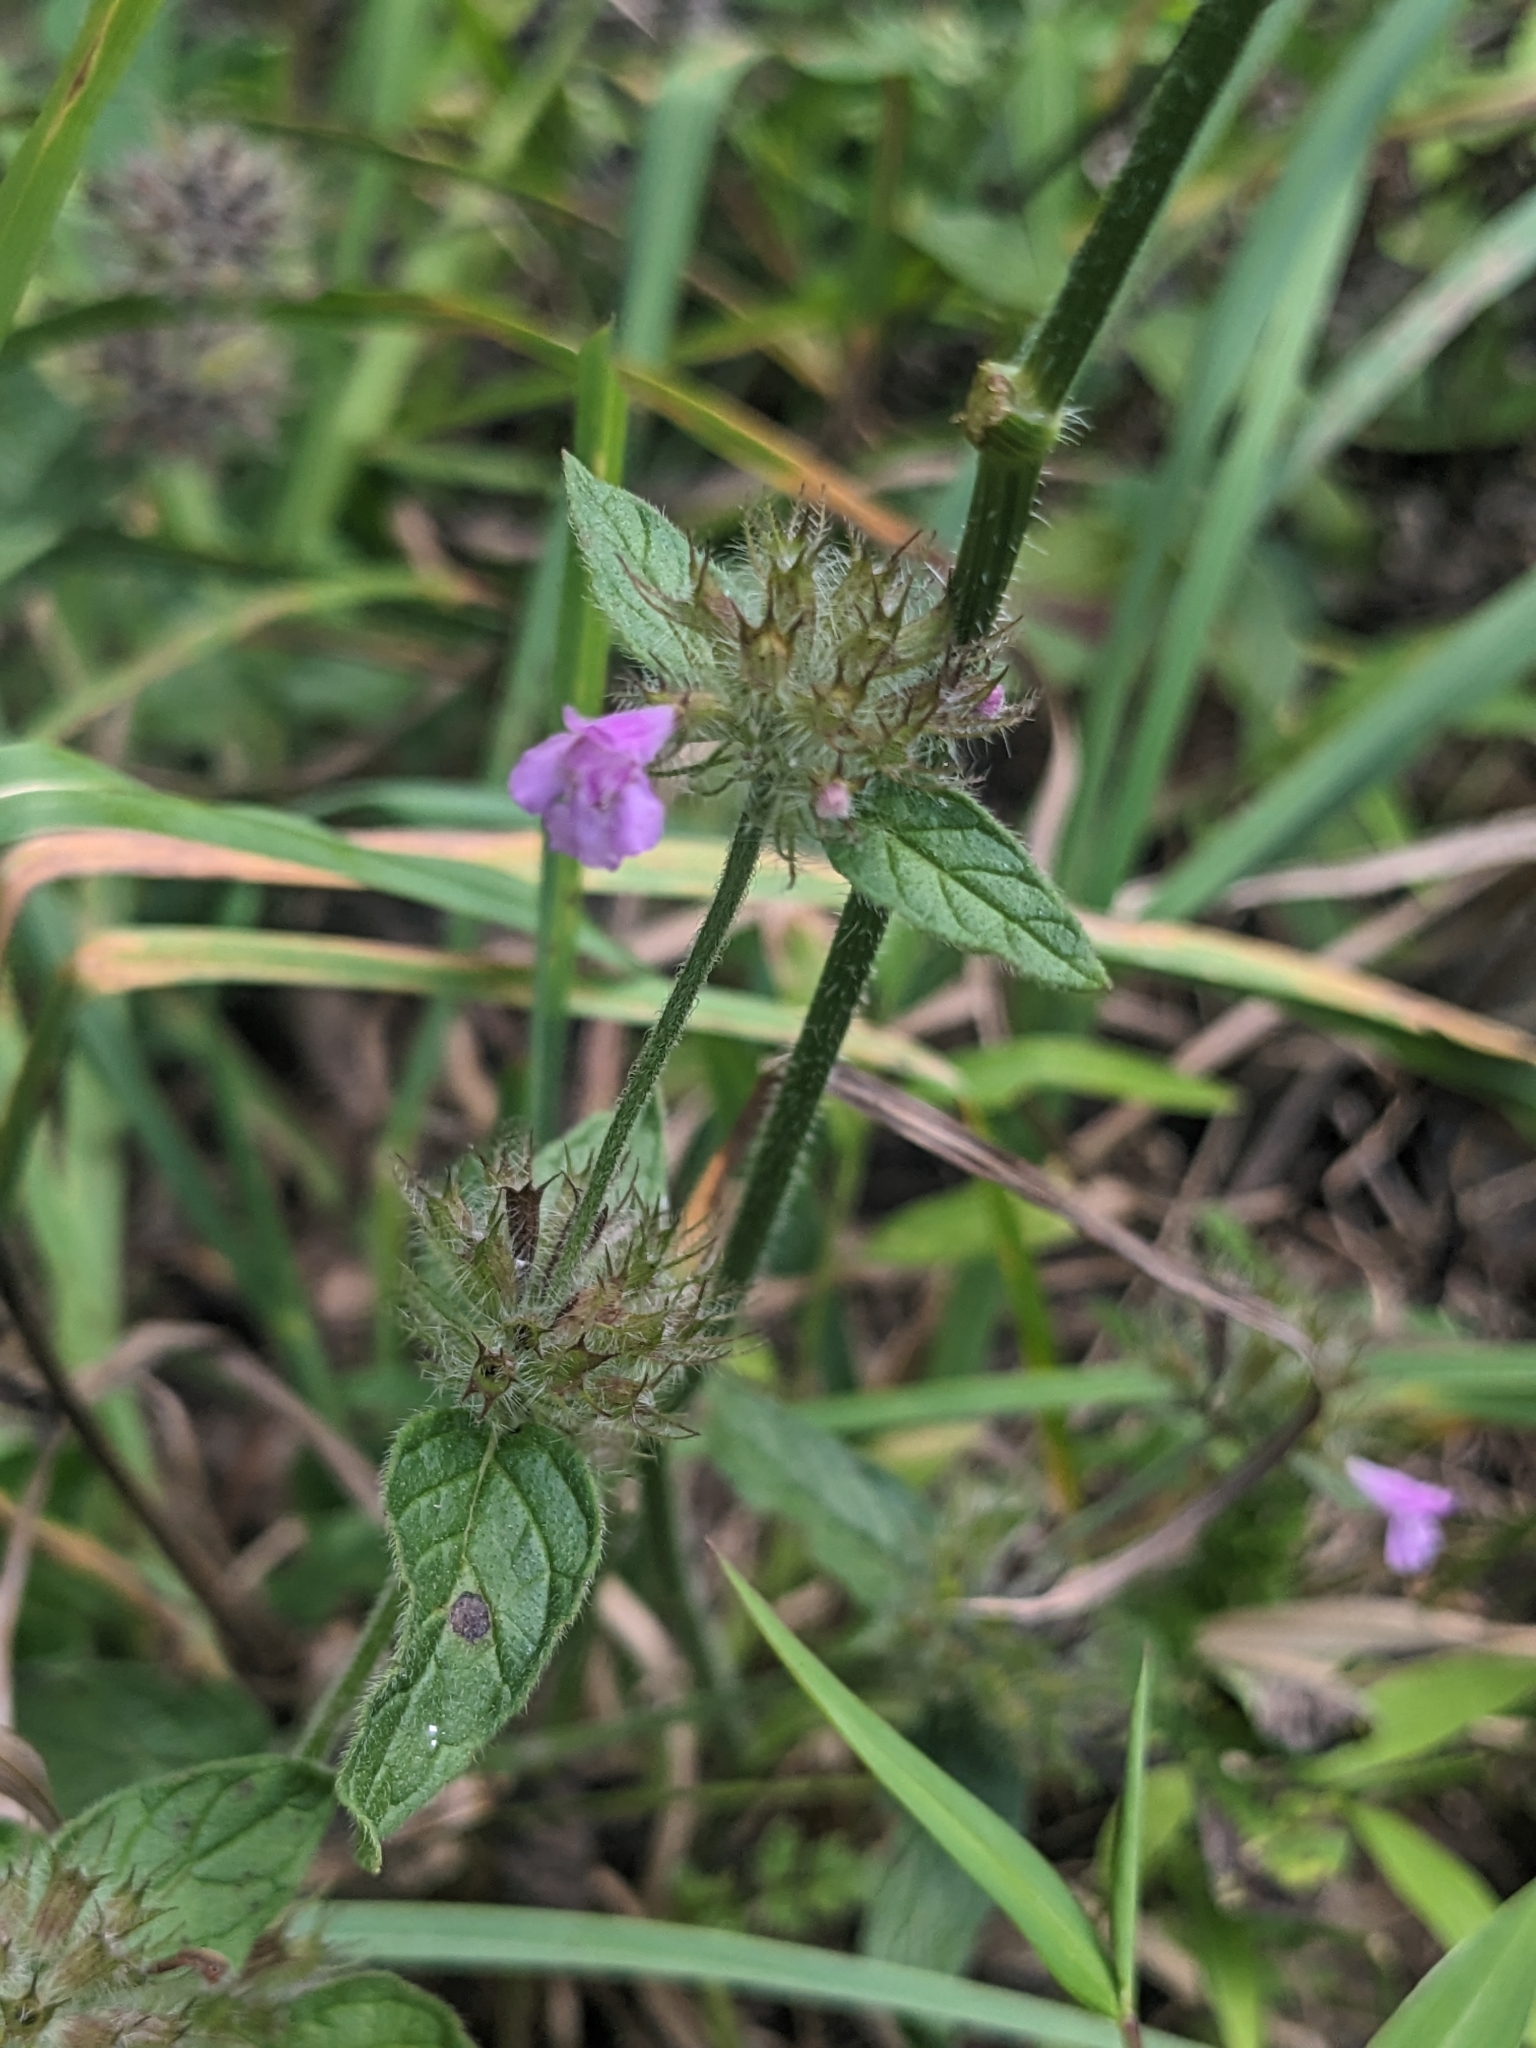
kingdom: Plantae
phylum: Tracheophyta
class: Magnoliopsida
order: Lamiales
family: Lamiaceae
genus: Clinopodium
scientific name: Clinopodium vulgare
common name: Wild basil
